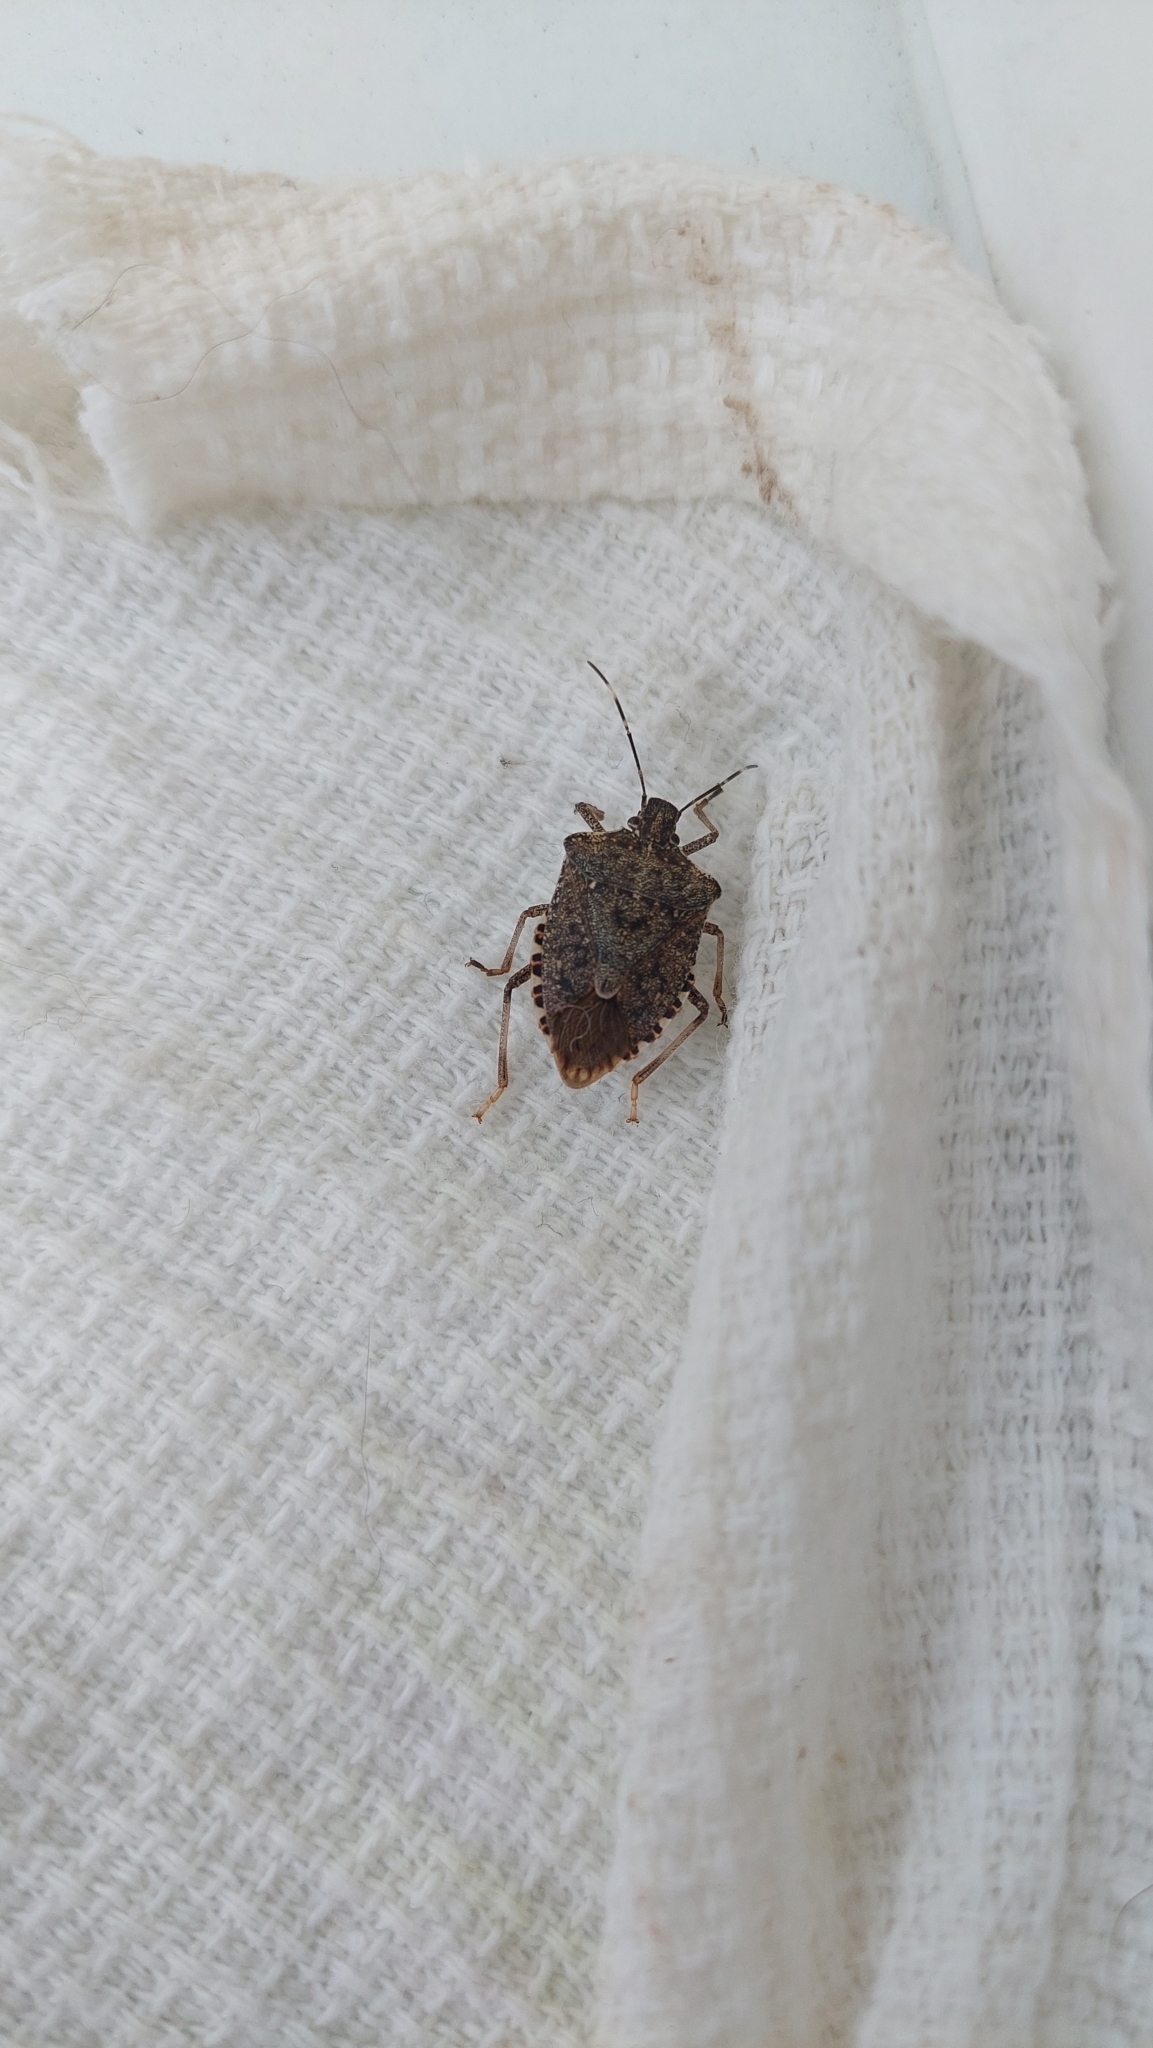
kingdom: Animalia
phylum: Arthropoda
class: Insecta
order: Hemiptera
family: Pentatomidae
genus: Halyomorpha
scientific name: Halyomorpha halys
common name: Brown marmorated stink bug
